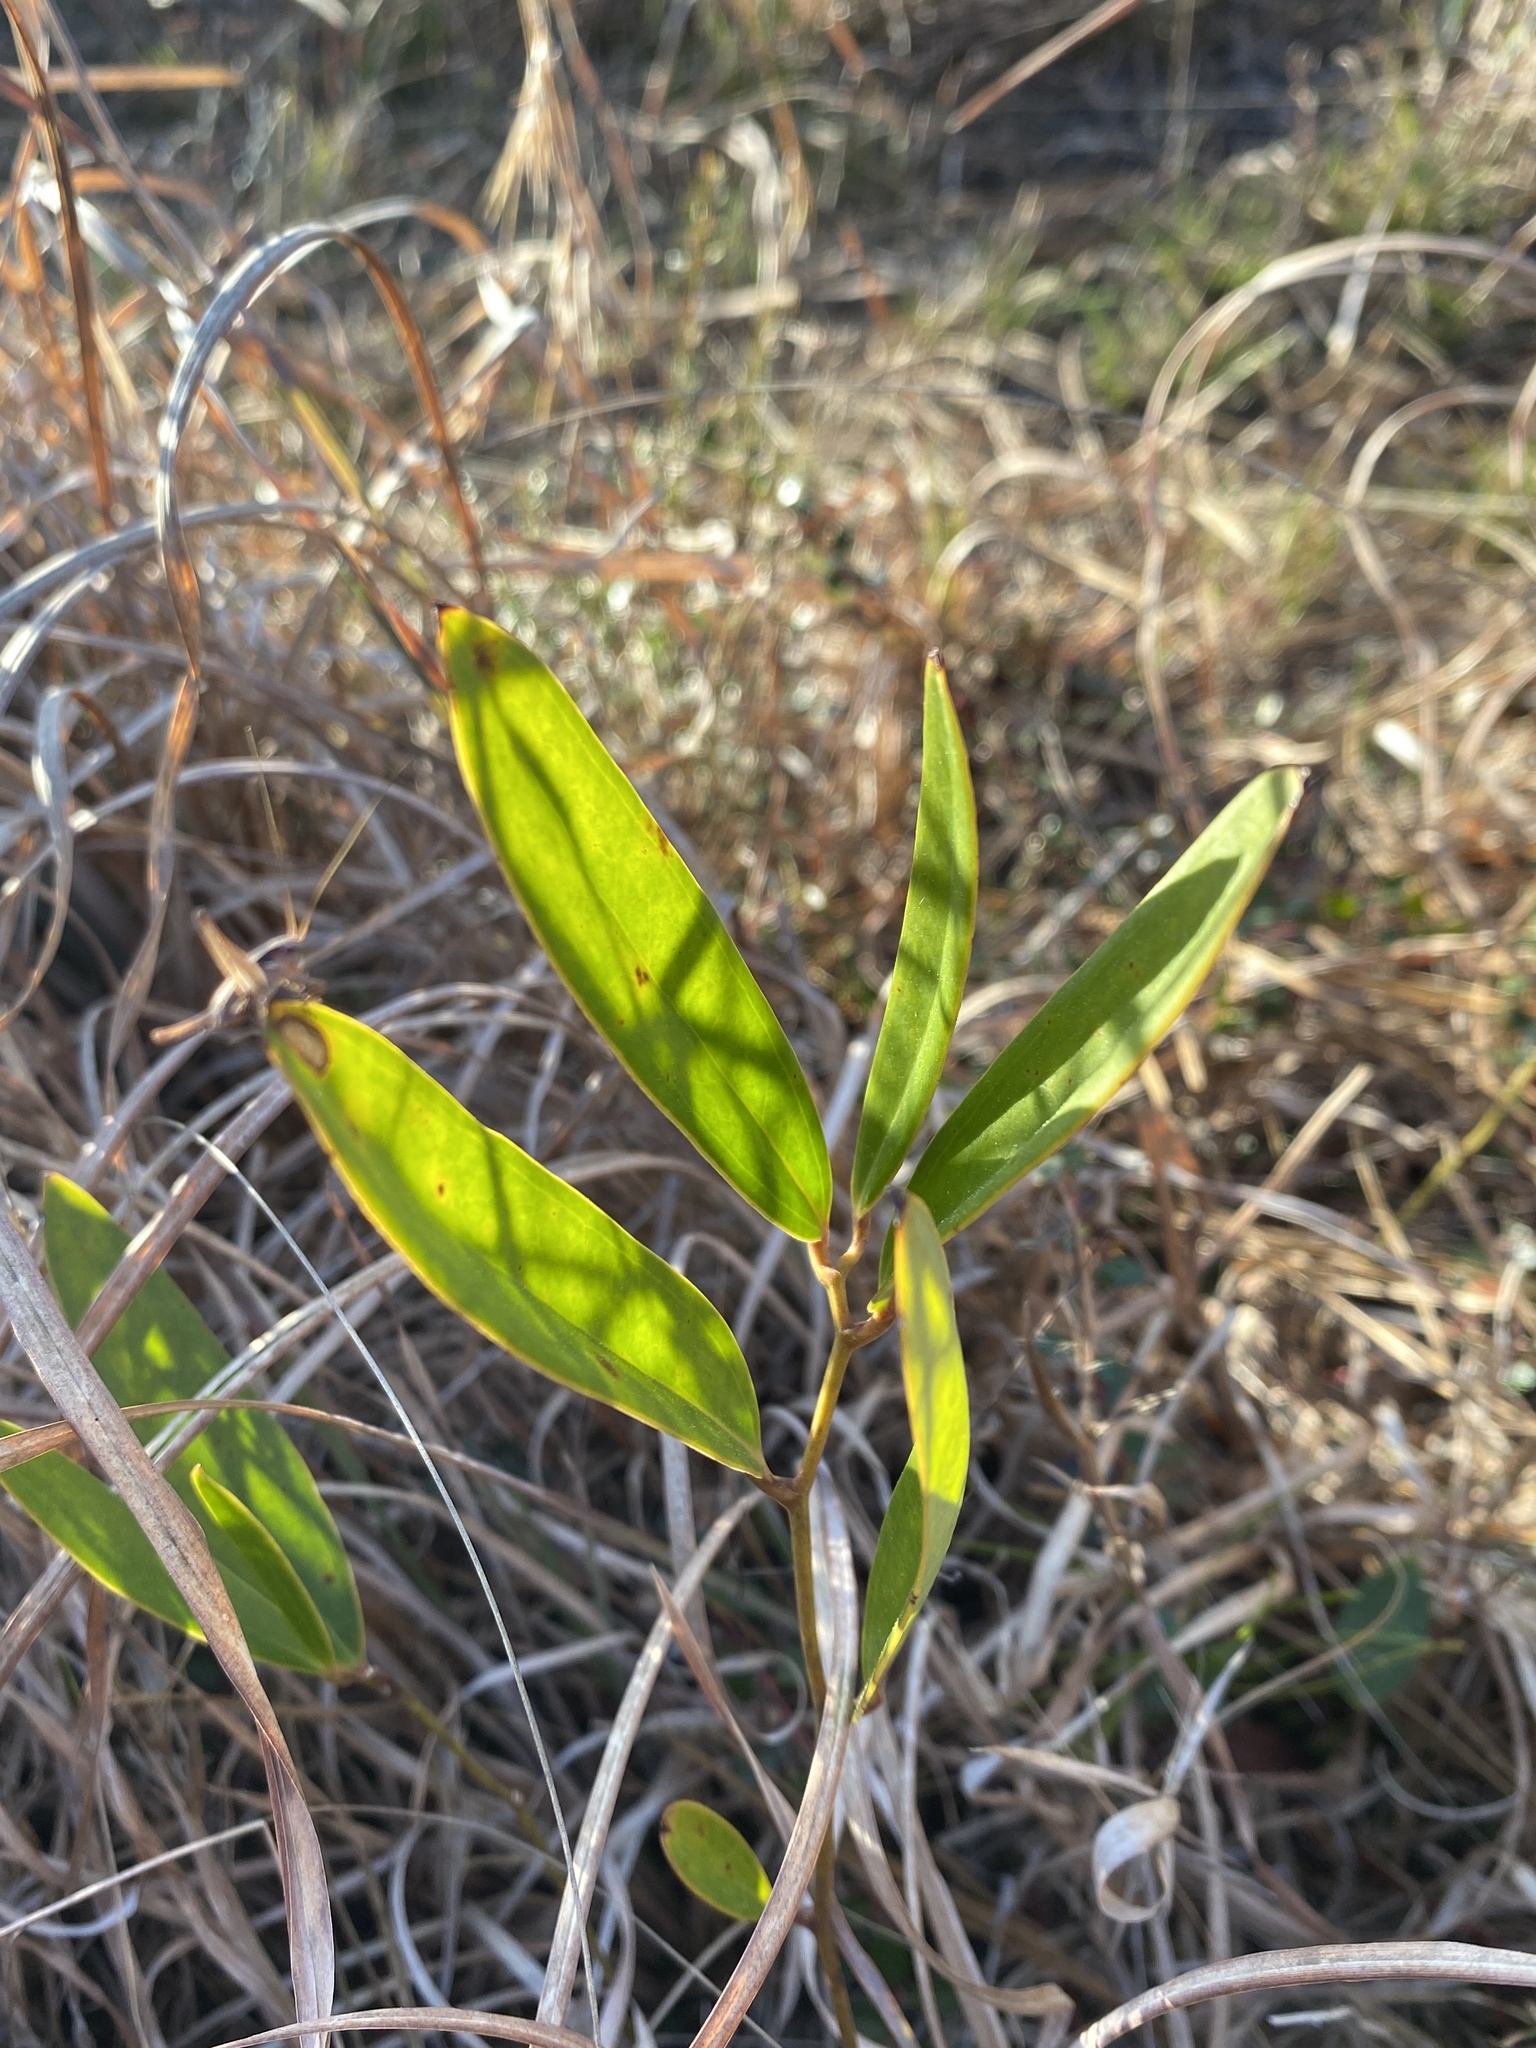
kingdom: Plantae
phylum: Tracheophyta
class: Liliopsida
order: Liliales
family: Smilacaceae
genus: Smilax
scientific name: Smilax laurifolia
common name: Bamboovine
